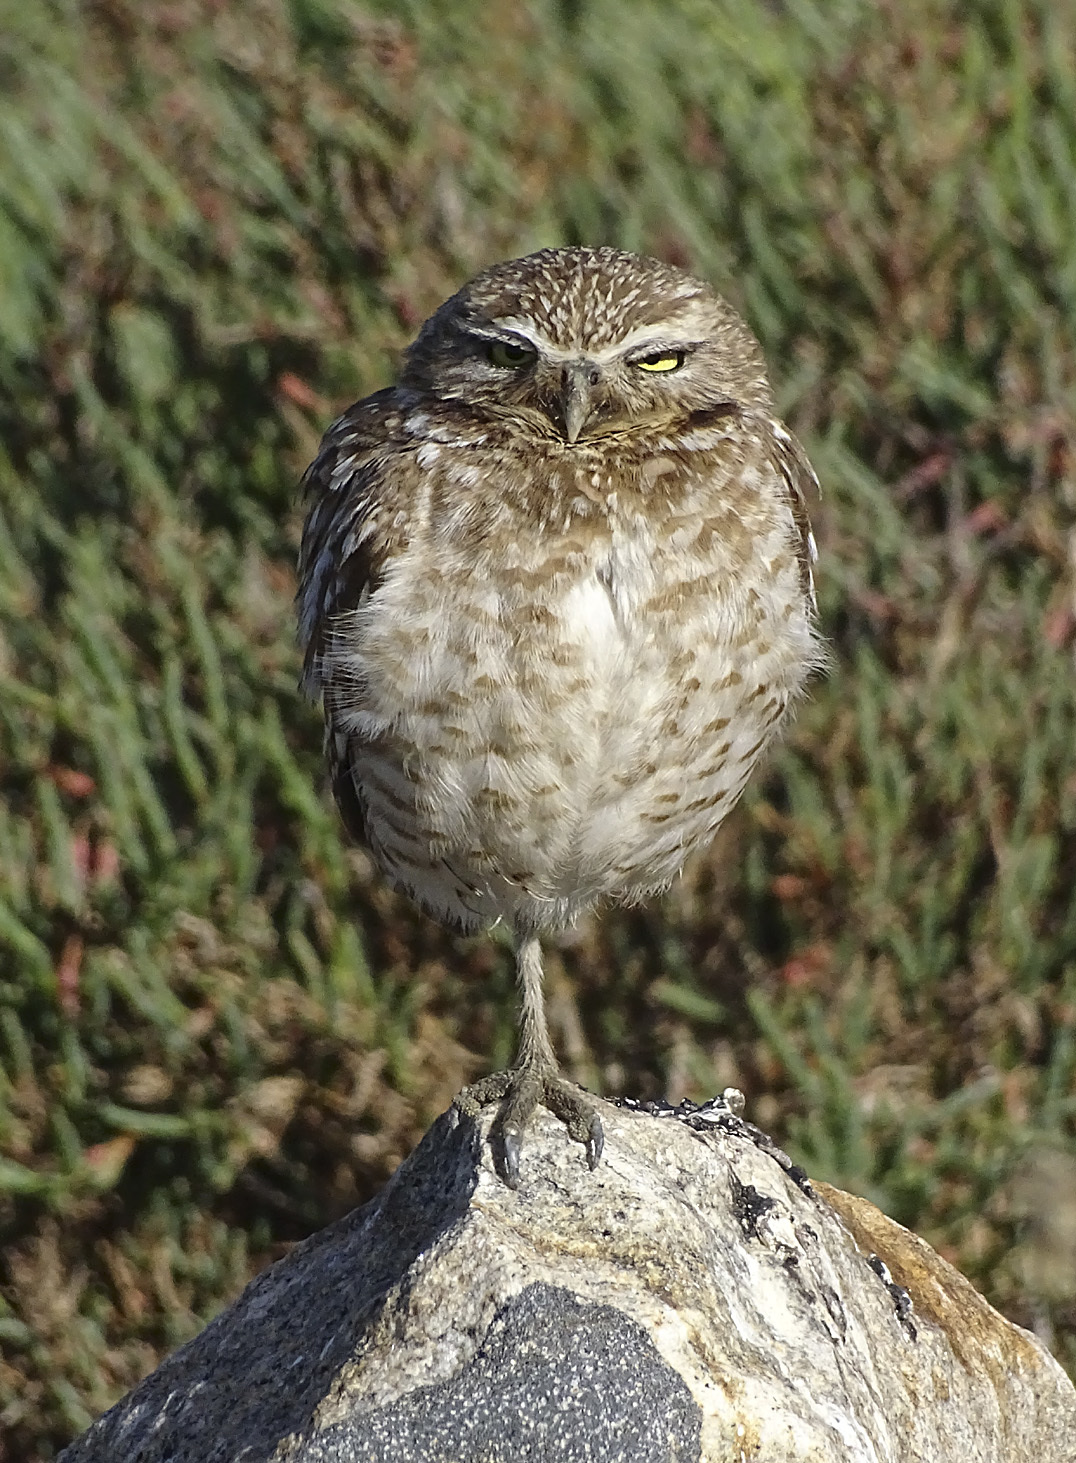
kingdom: Animalia
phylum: Chordata
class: Aves
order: Strigiformes
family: Strigidae
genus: Athene
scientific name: Athene cunicularia
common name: Burrowing owl
